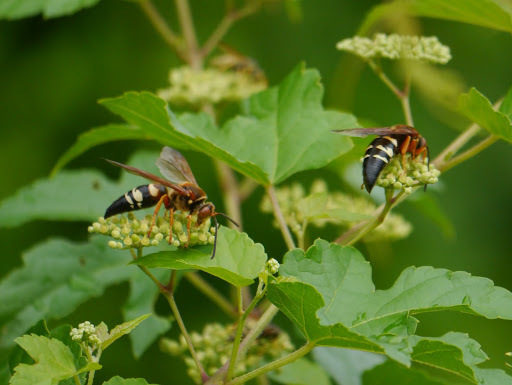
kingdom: Animalia
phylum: Arthropoda
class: Insecta
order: Hymenoptera
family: Crabronidae
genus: Sphecius
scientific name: Sphecius speciosus
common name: Cicada killer
